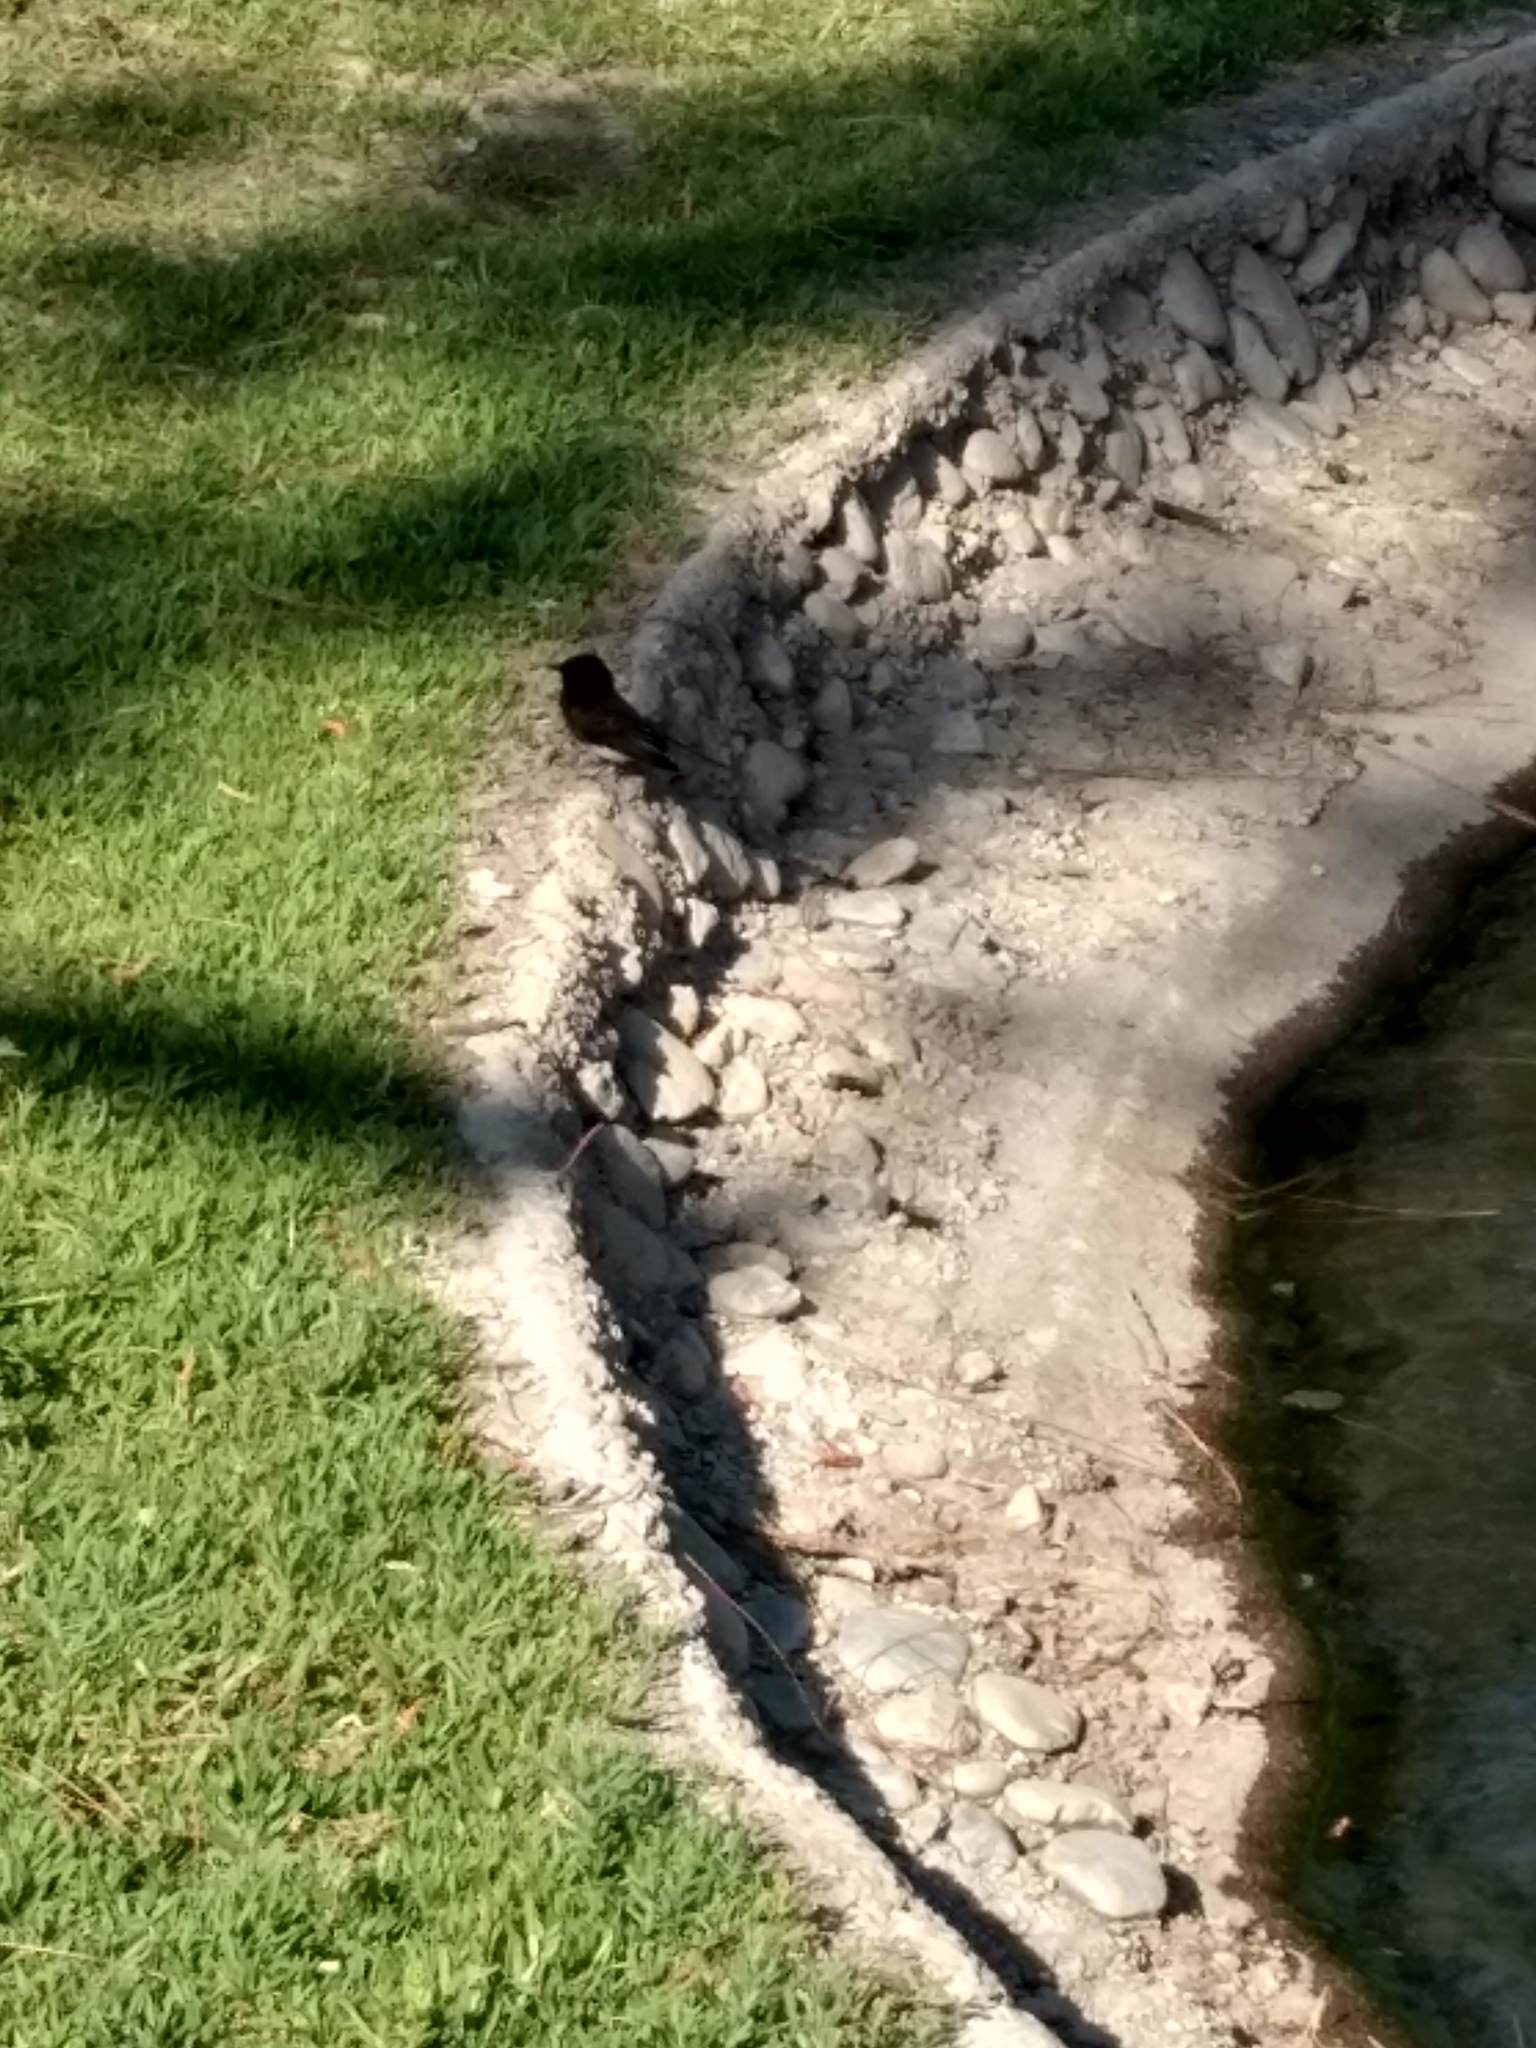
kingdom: Animalia
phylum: Chordata
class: Aves
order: Passeriformes
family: Tyrannidae
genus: Sayornis
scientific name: Sayornis nigricans
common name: Black phoebe
